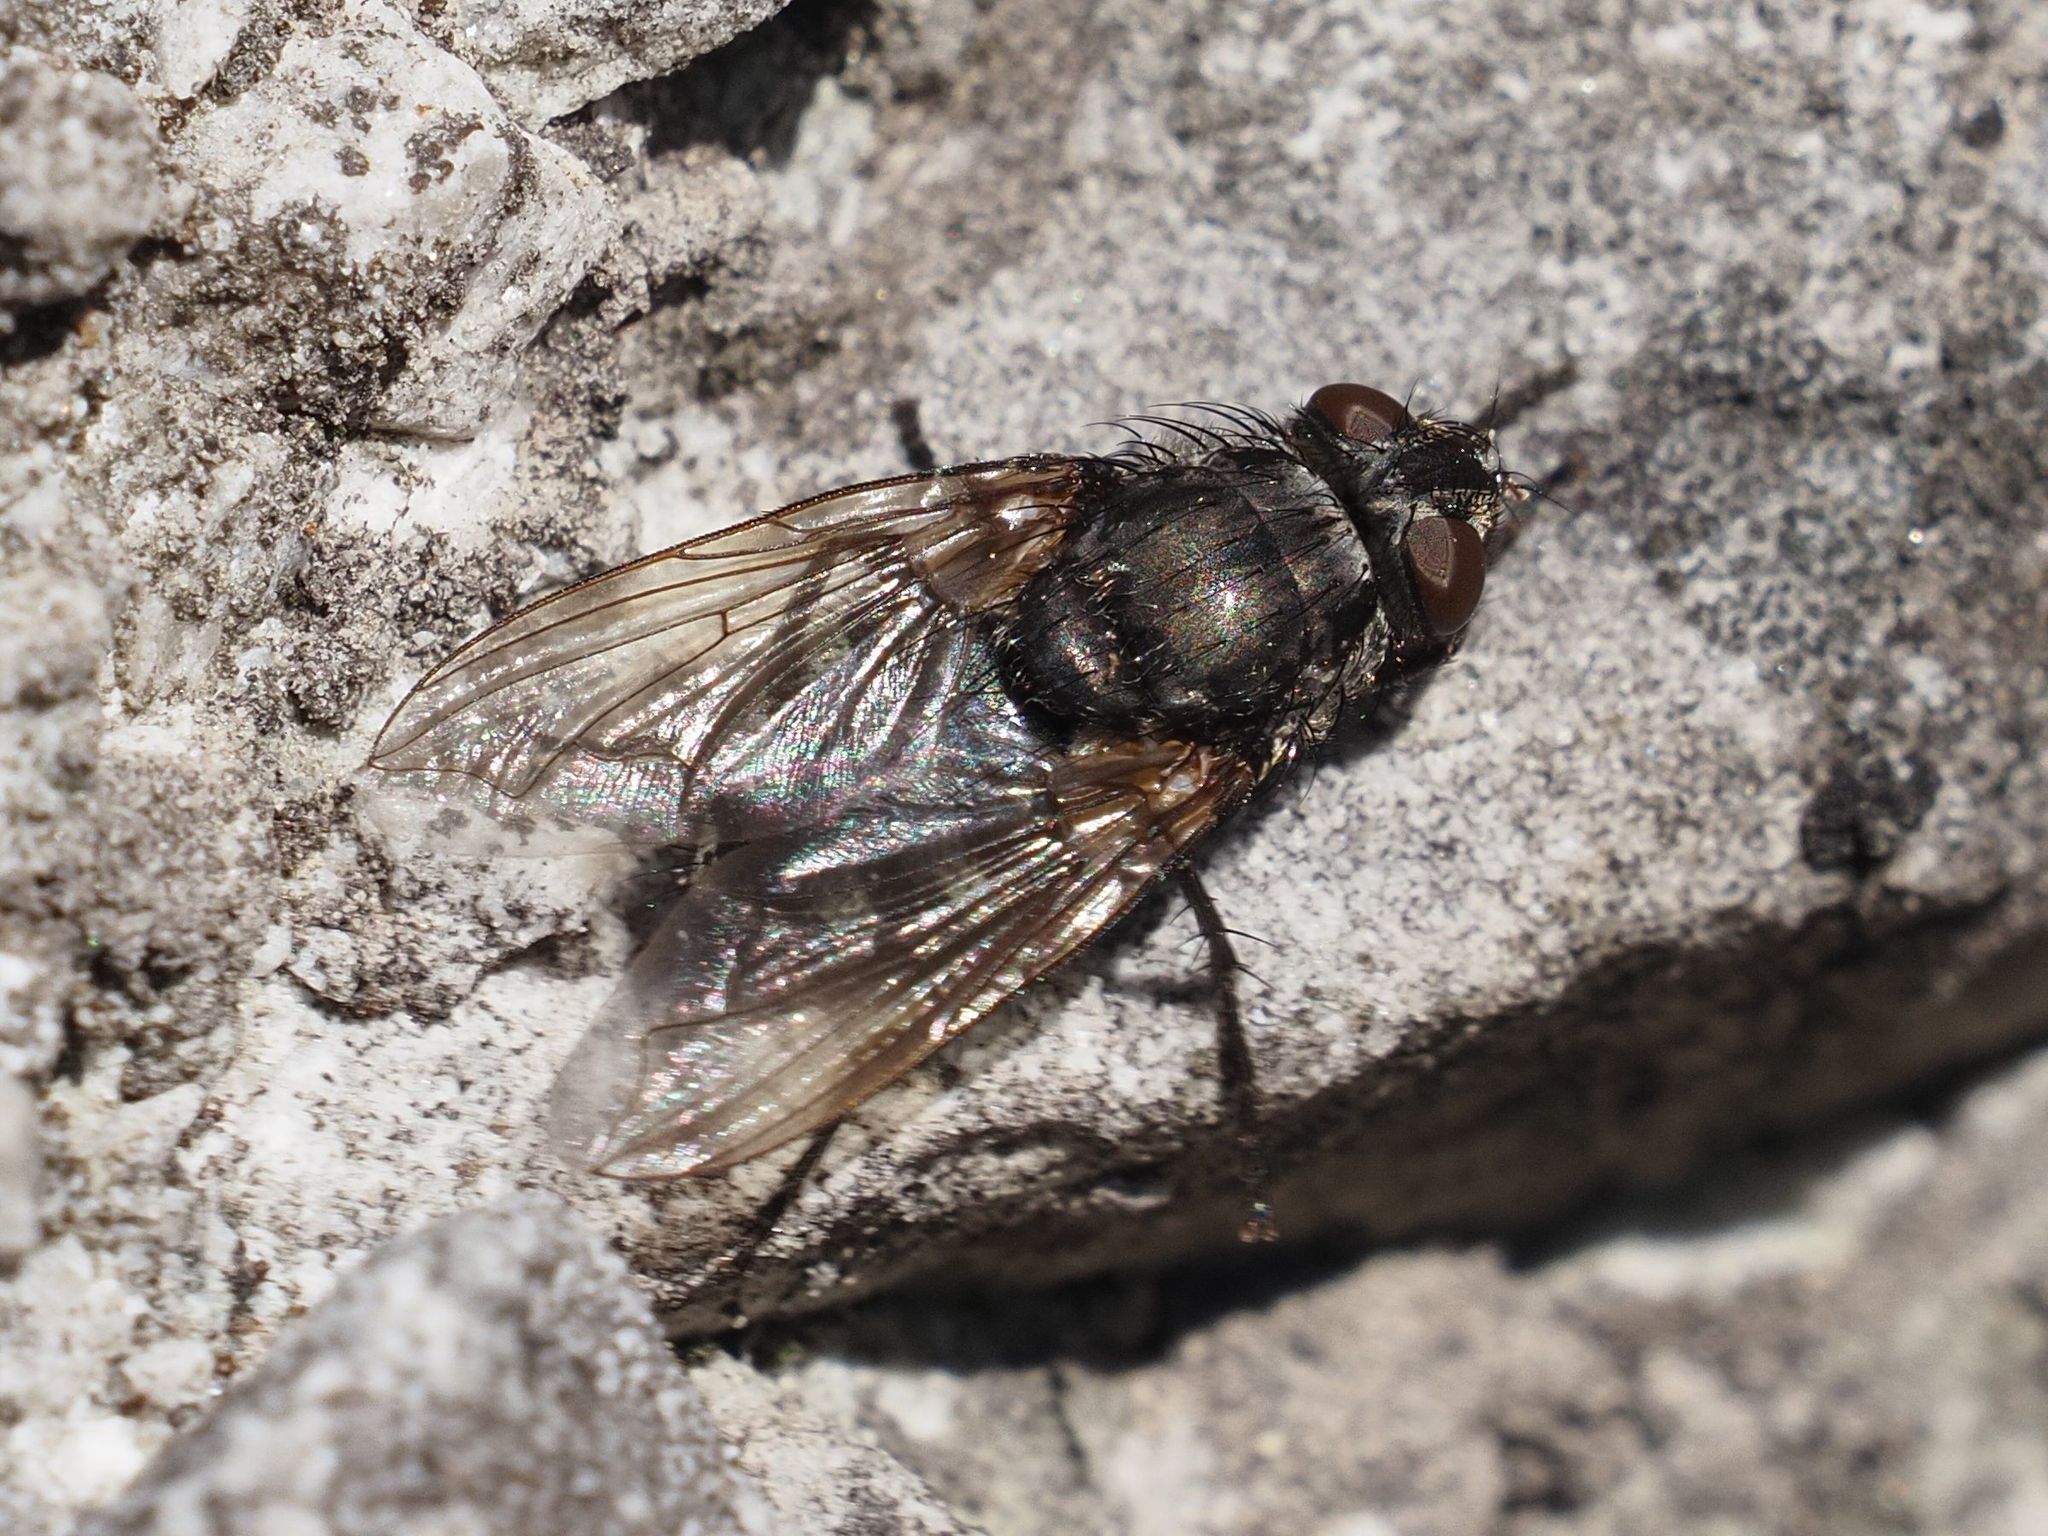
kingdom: Animalia
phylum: Arthropoda
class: Insecta
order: Diptera
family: Polleniidae
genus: Pollenia
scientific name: Pollenia vagabunda
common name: Vagabund cluster fly
